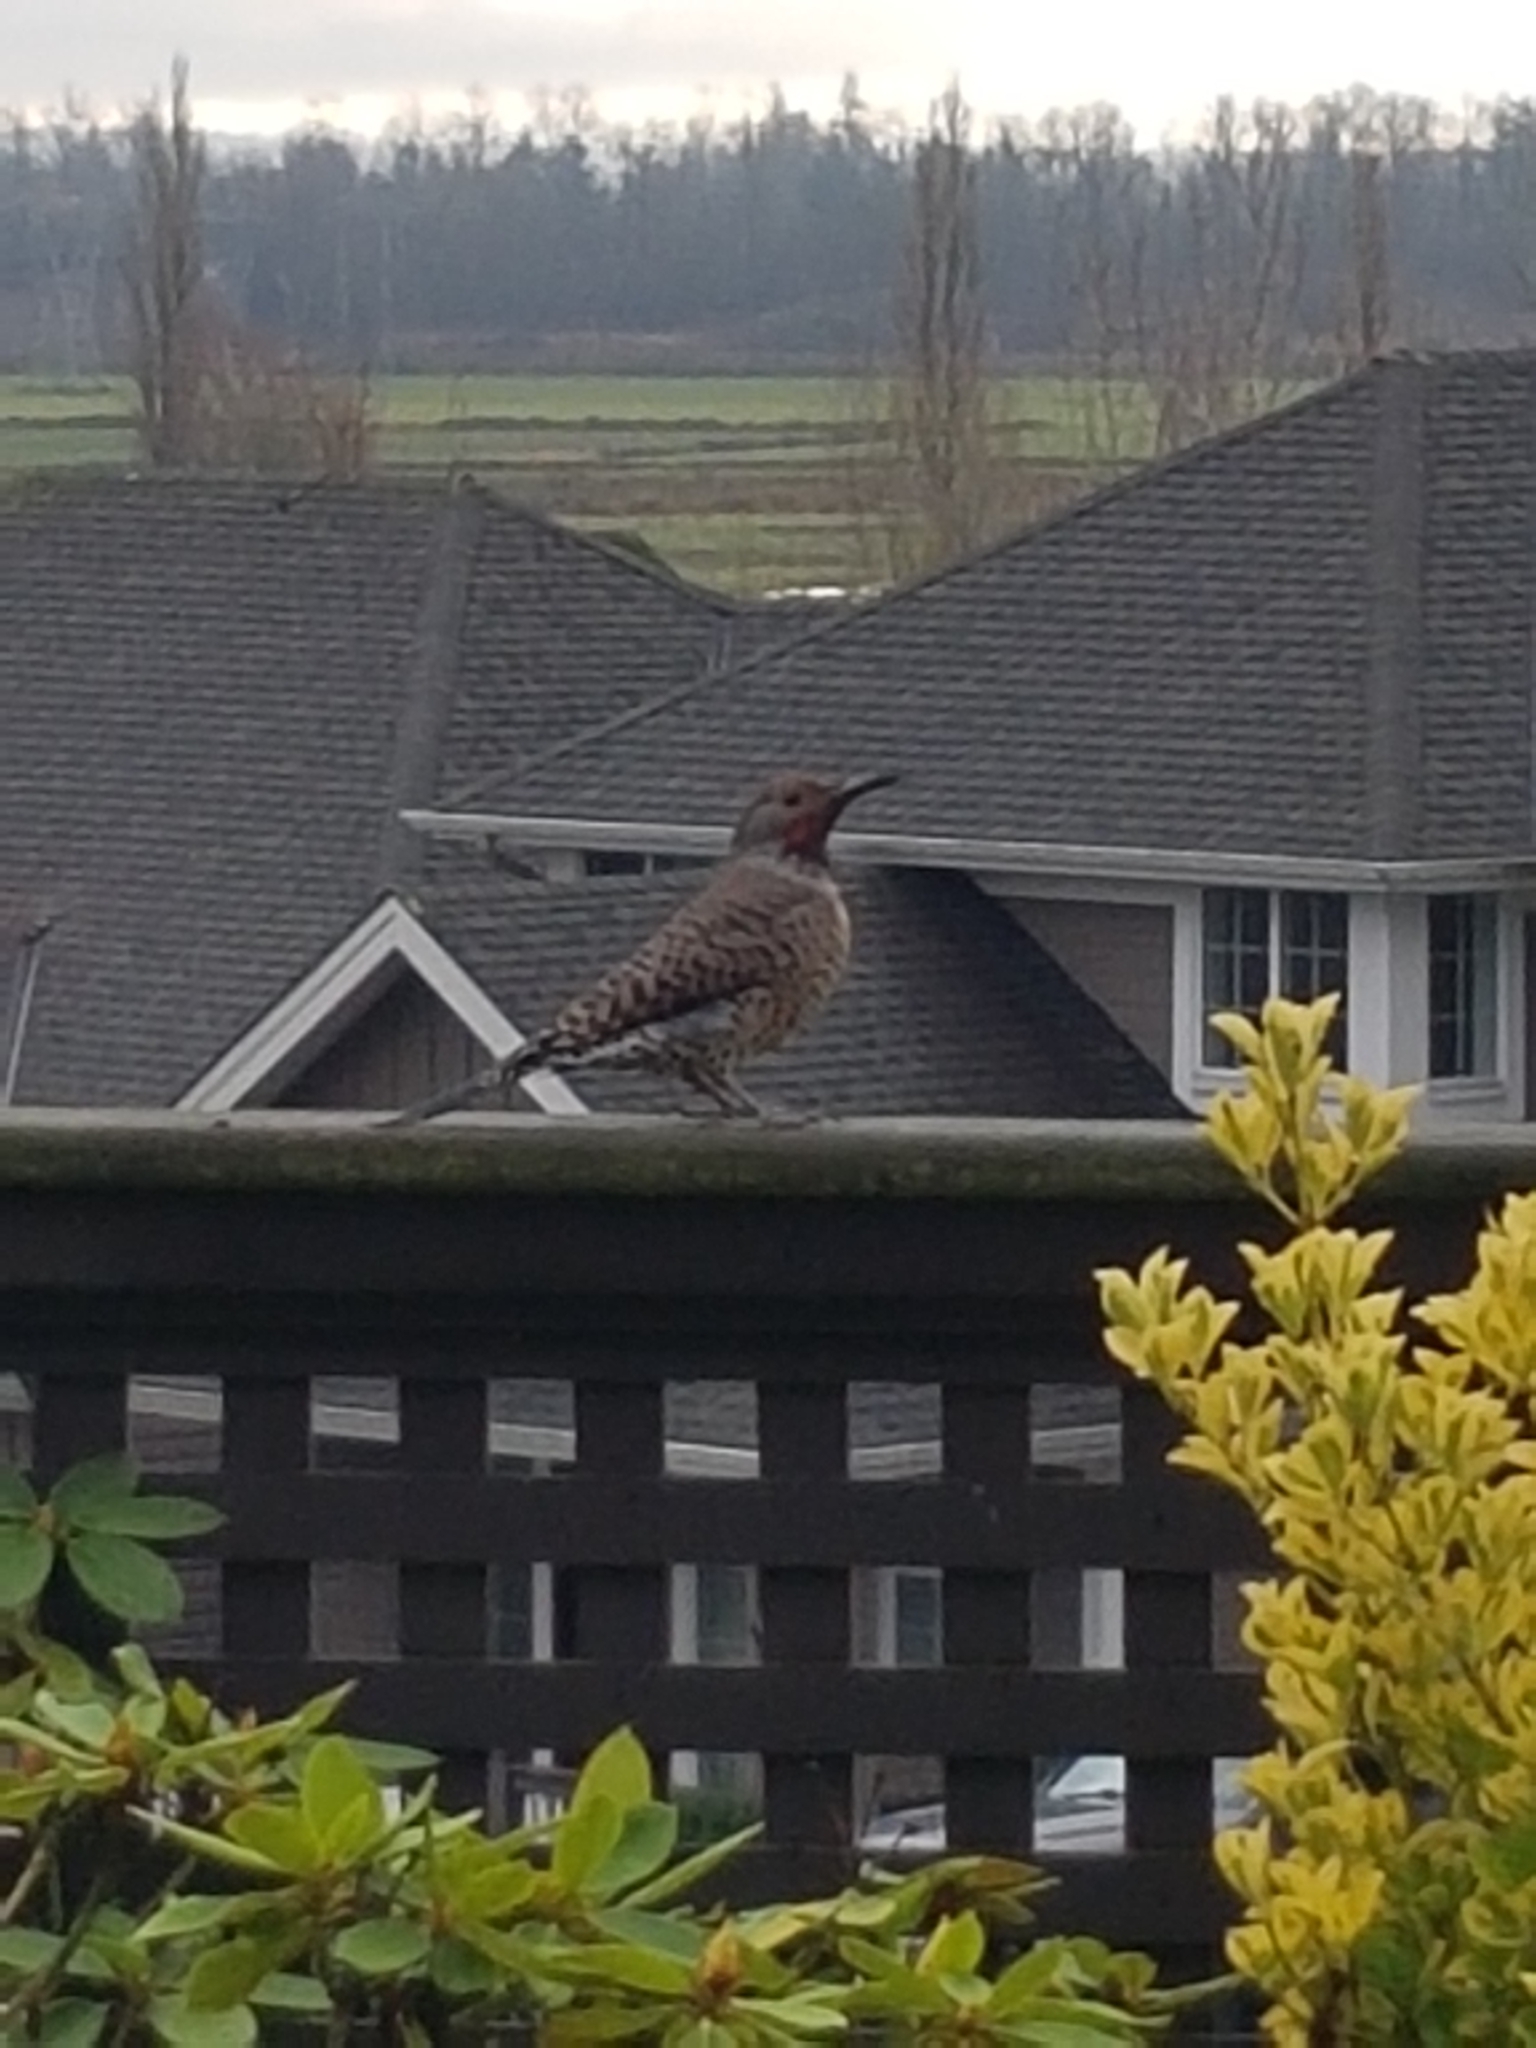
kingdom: Animalia
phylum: Chordata
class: Aves
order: Piciformes
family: Picidae
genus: Colaptes
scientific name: Colaptes auratus
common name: Northern flicker
